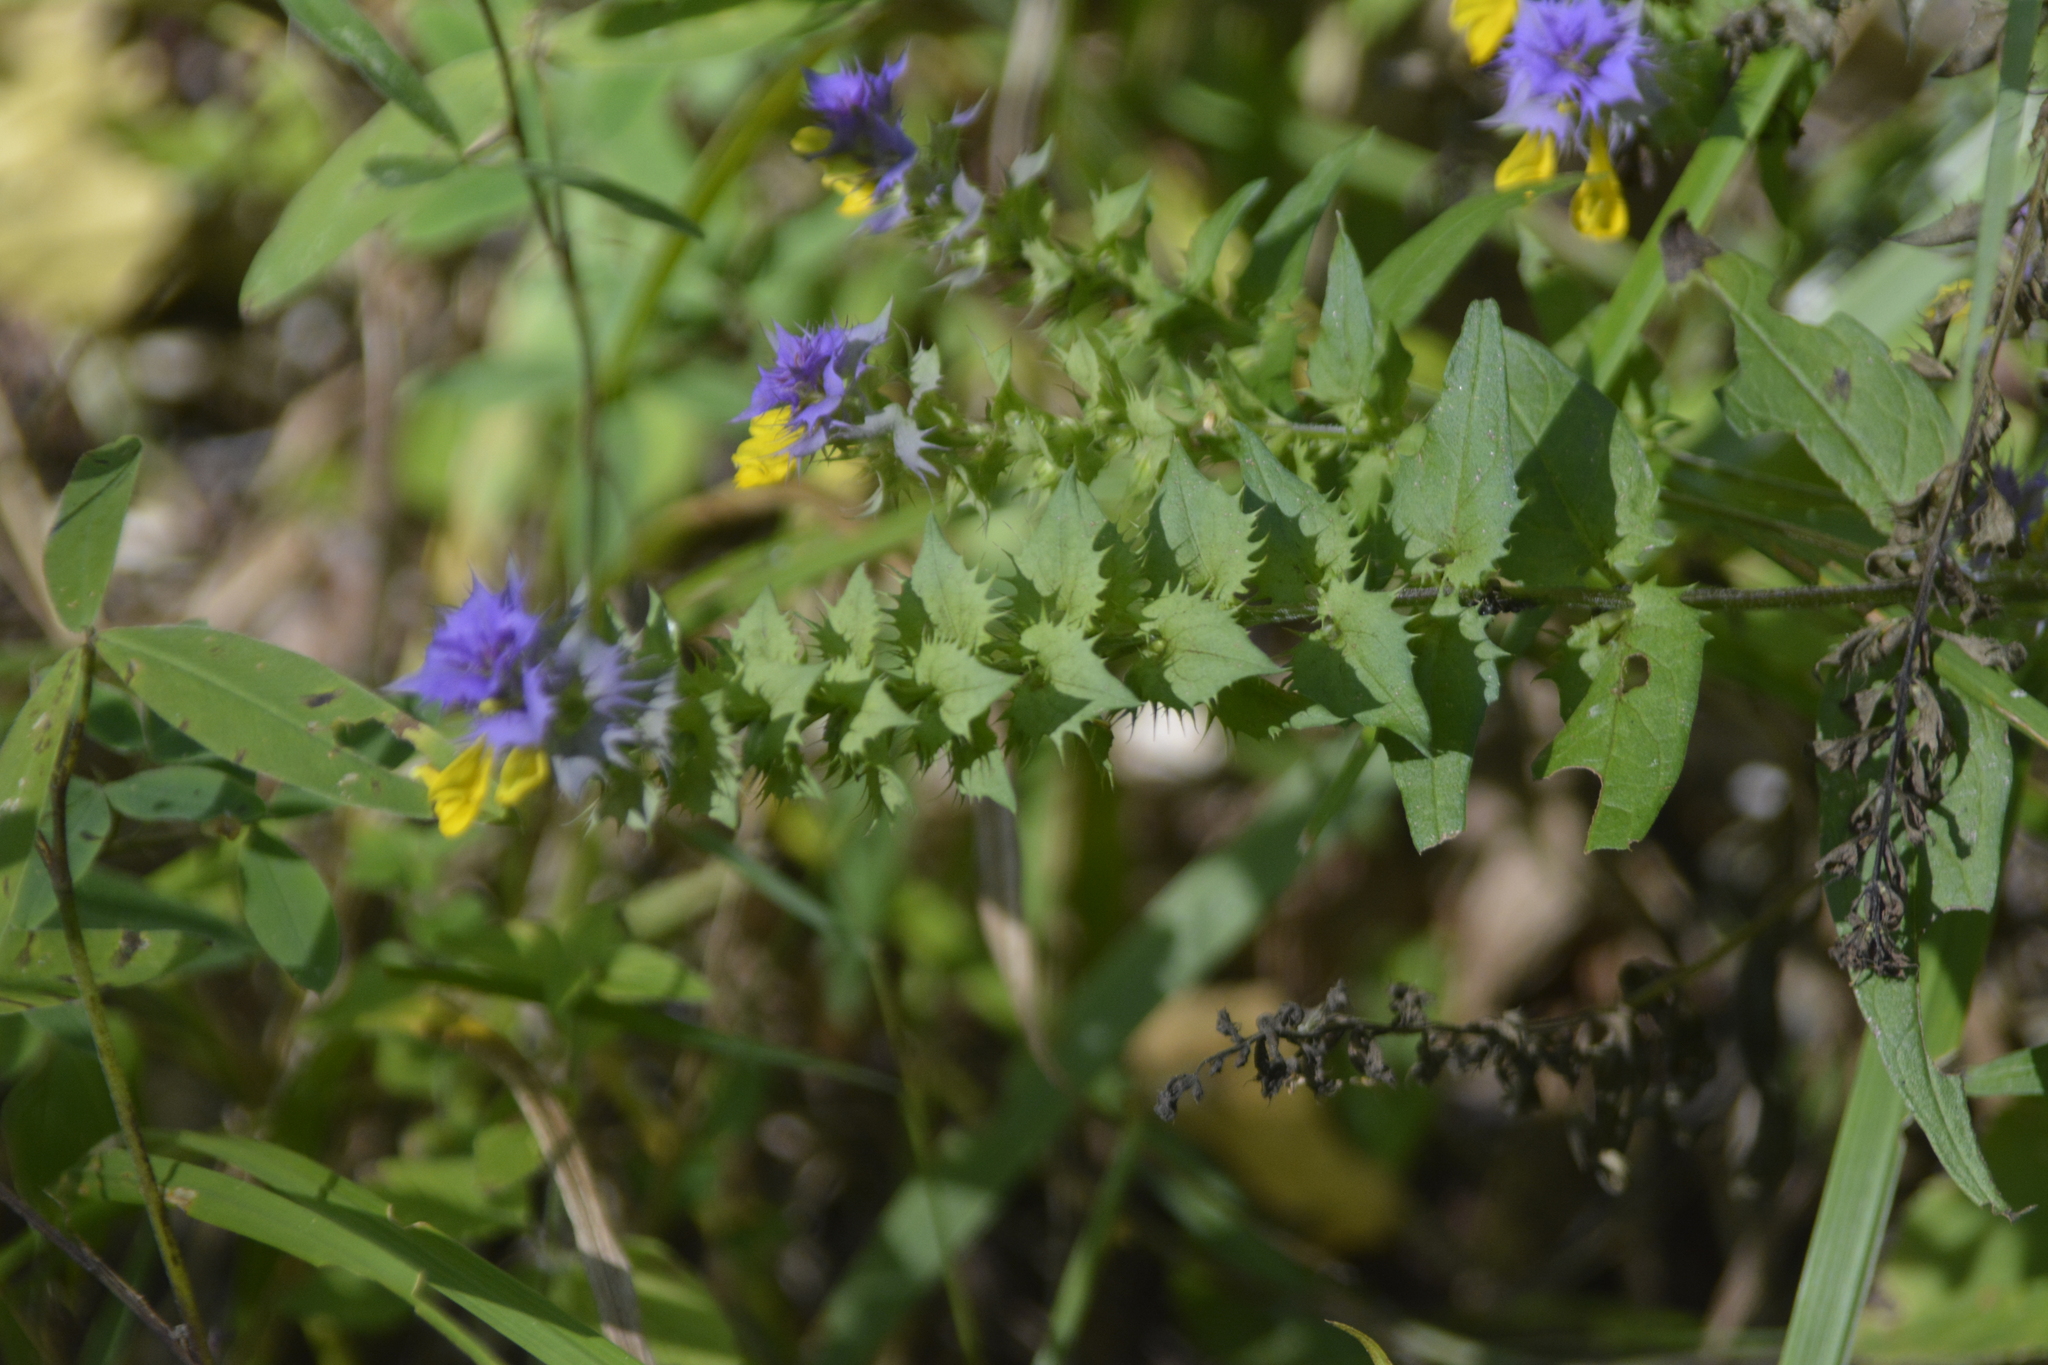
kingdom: Plantae
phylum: Tracheophyta
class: Magnoliopsida
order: Lamiales
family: Orobanchaceae
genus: Melampyrum
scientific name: Melampyrum nemorosum
